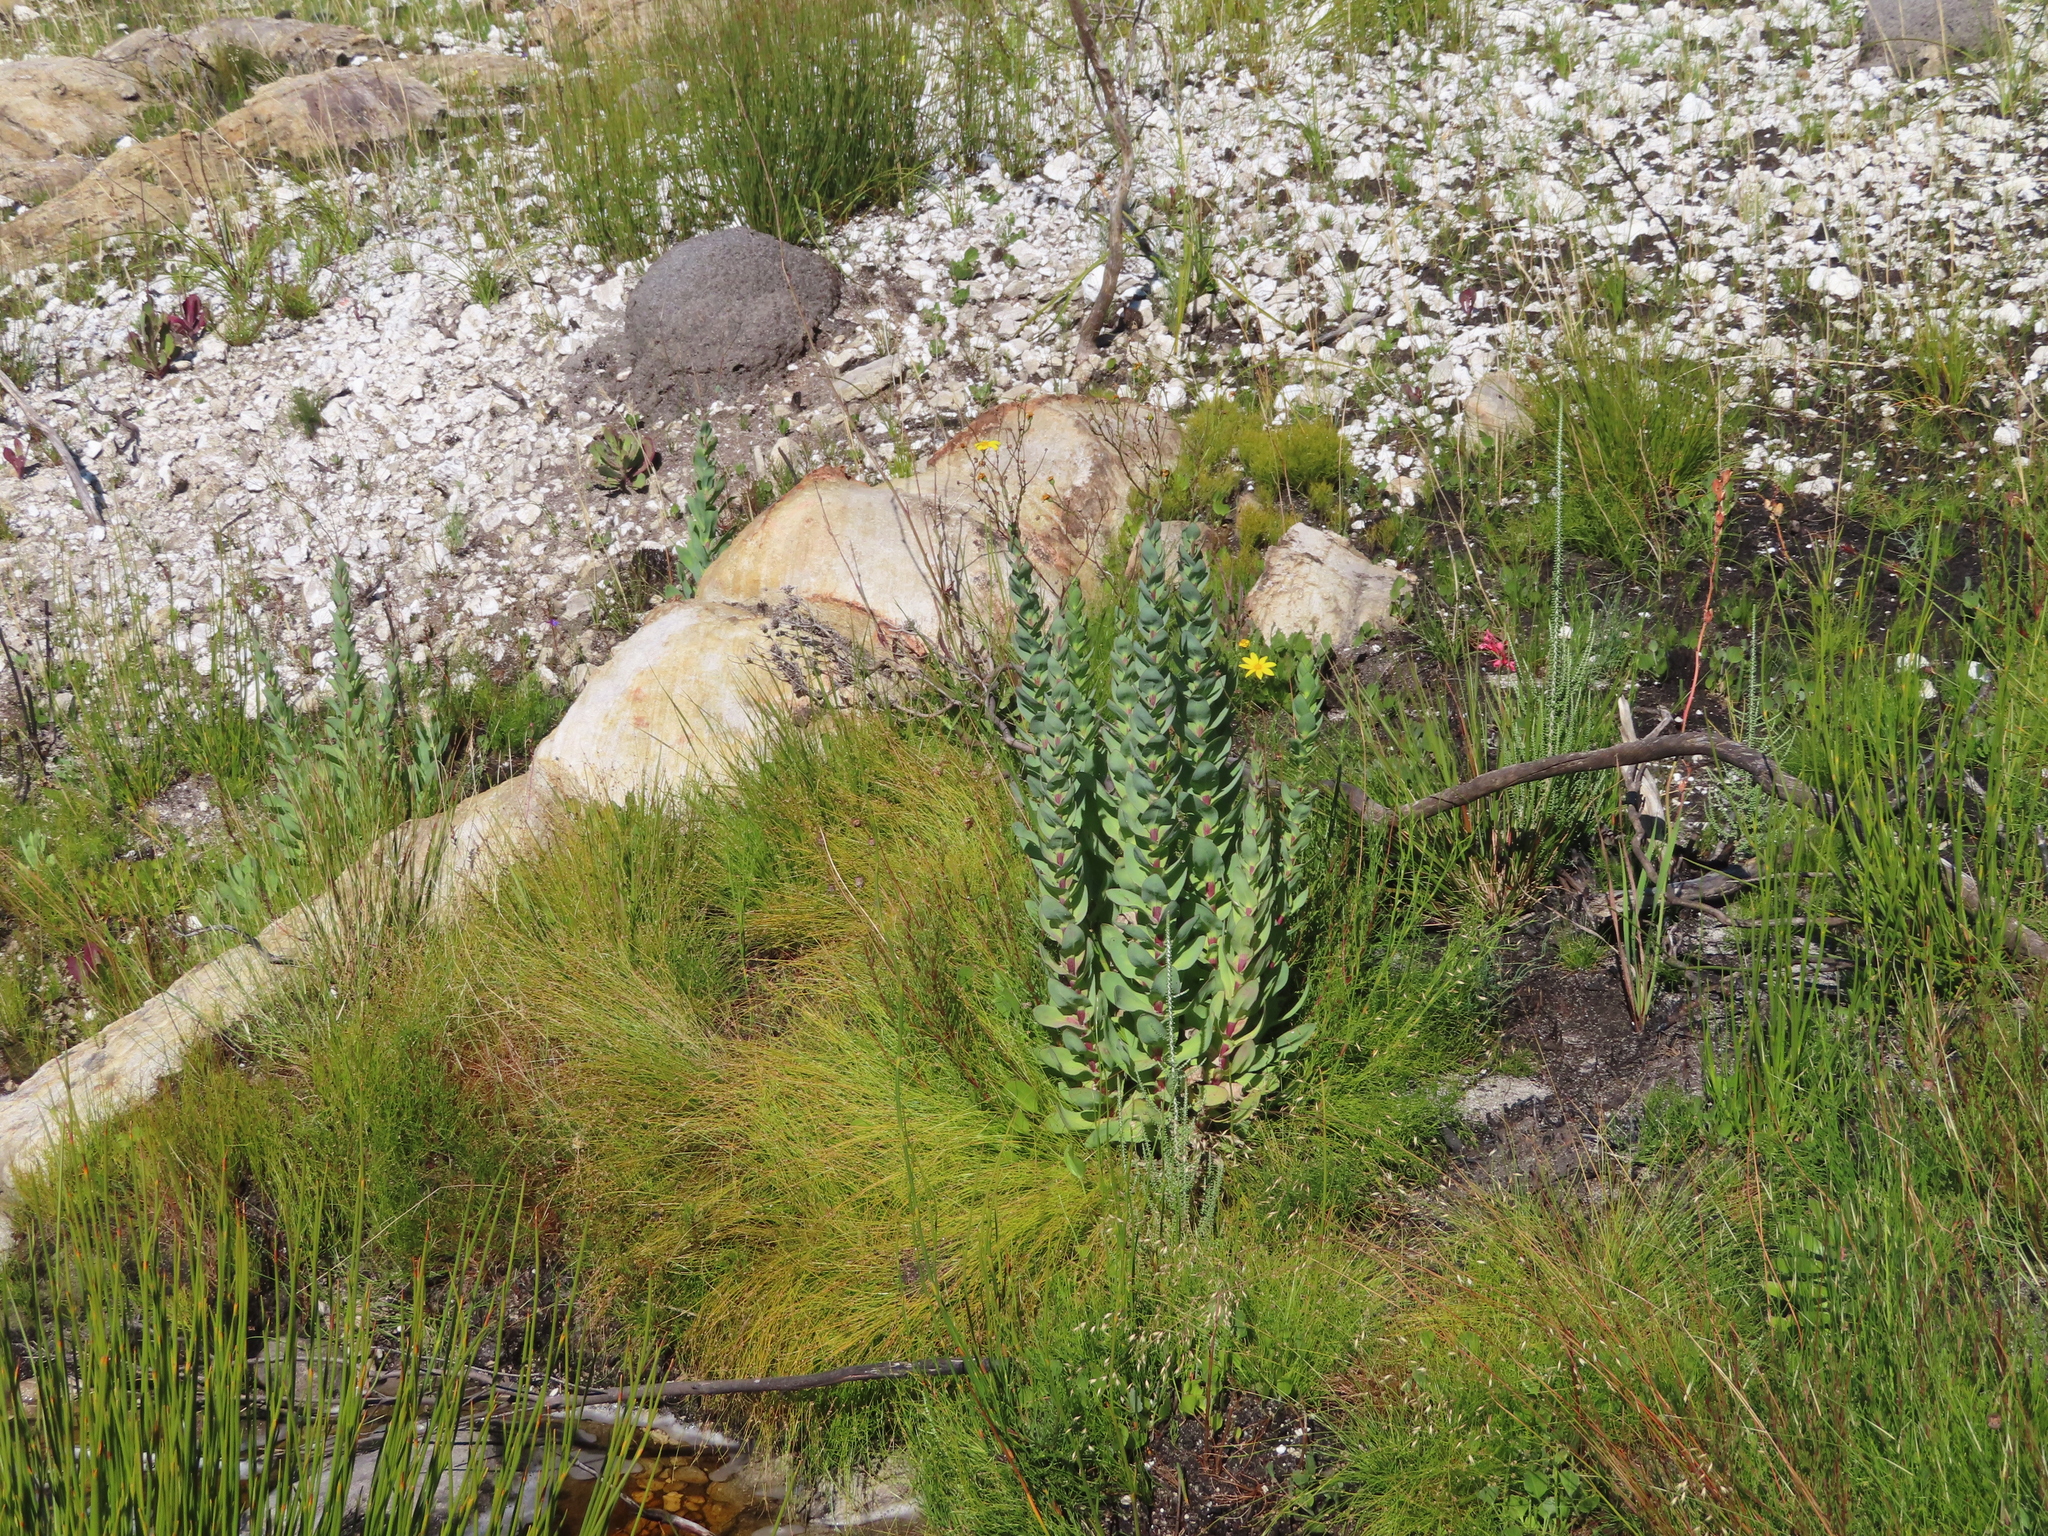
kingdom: Plantae
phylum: Tracheophyta
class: Magnoliopsida
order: Asterales
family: Asteraceae
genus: Othonna
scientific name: Othonna quinquedentata
